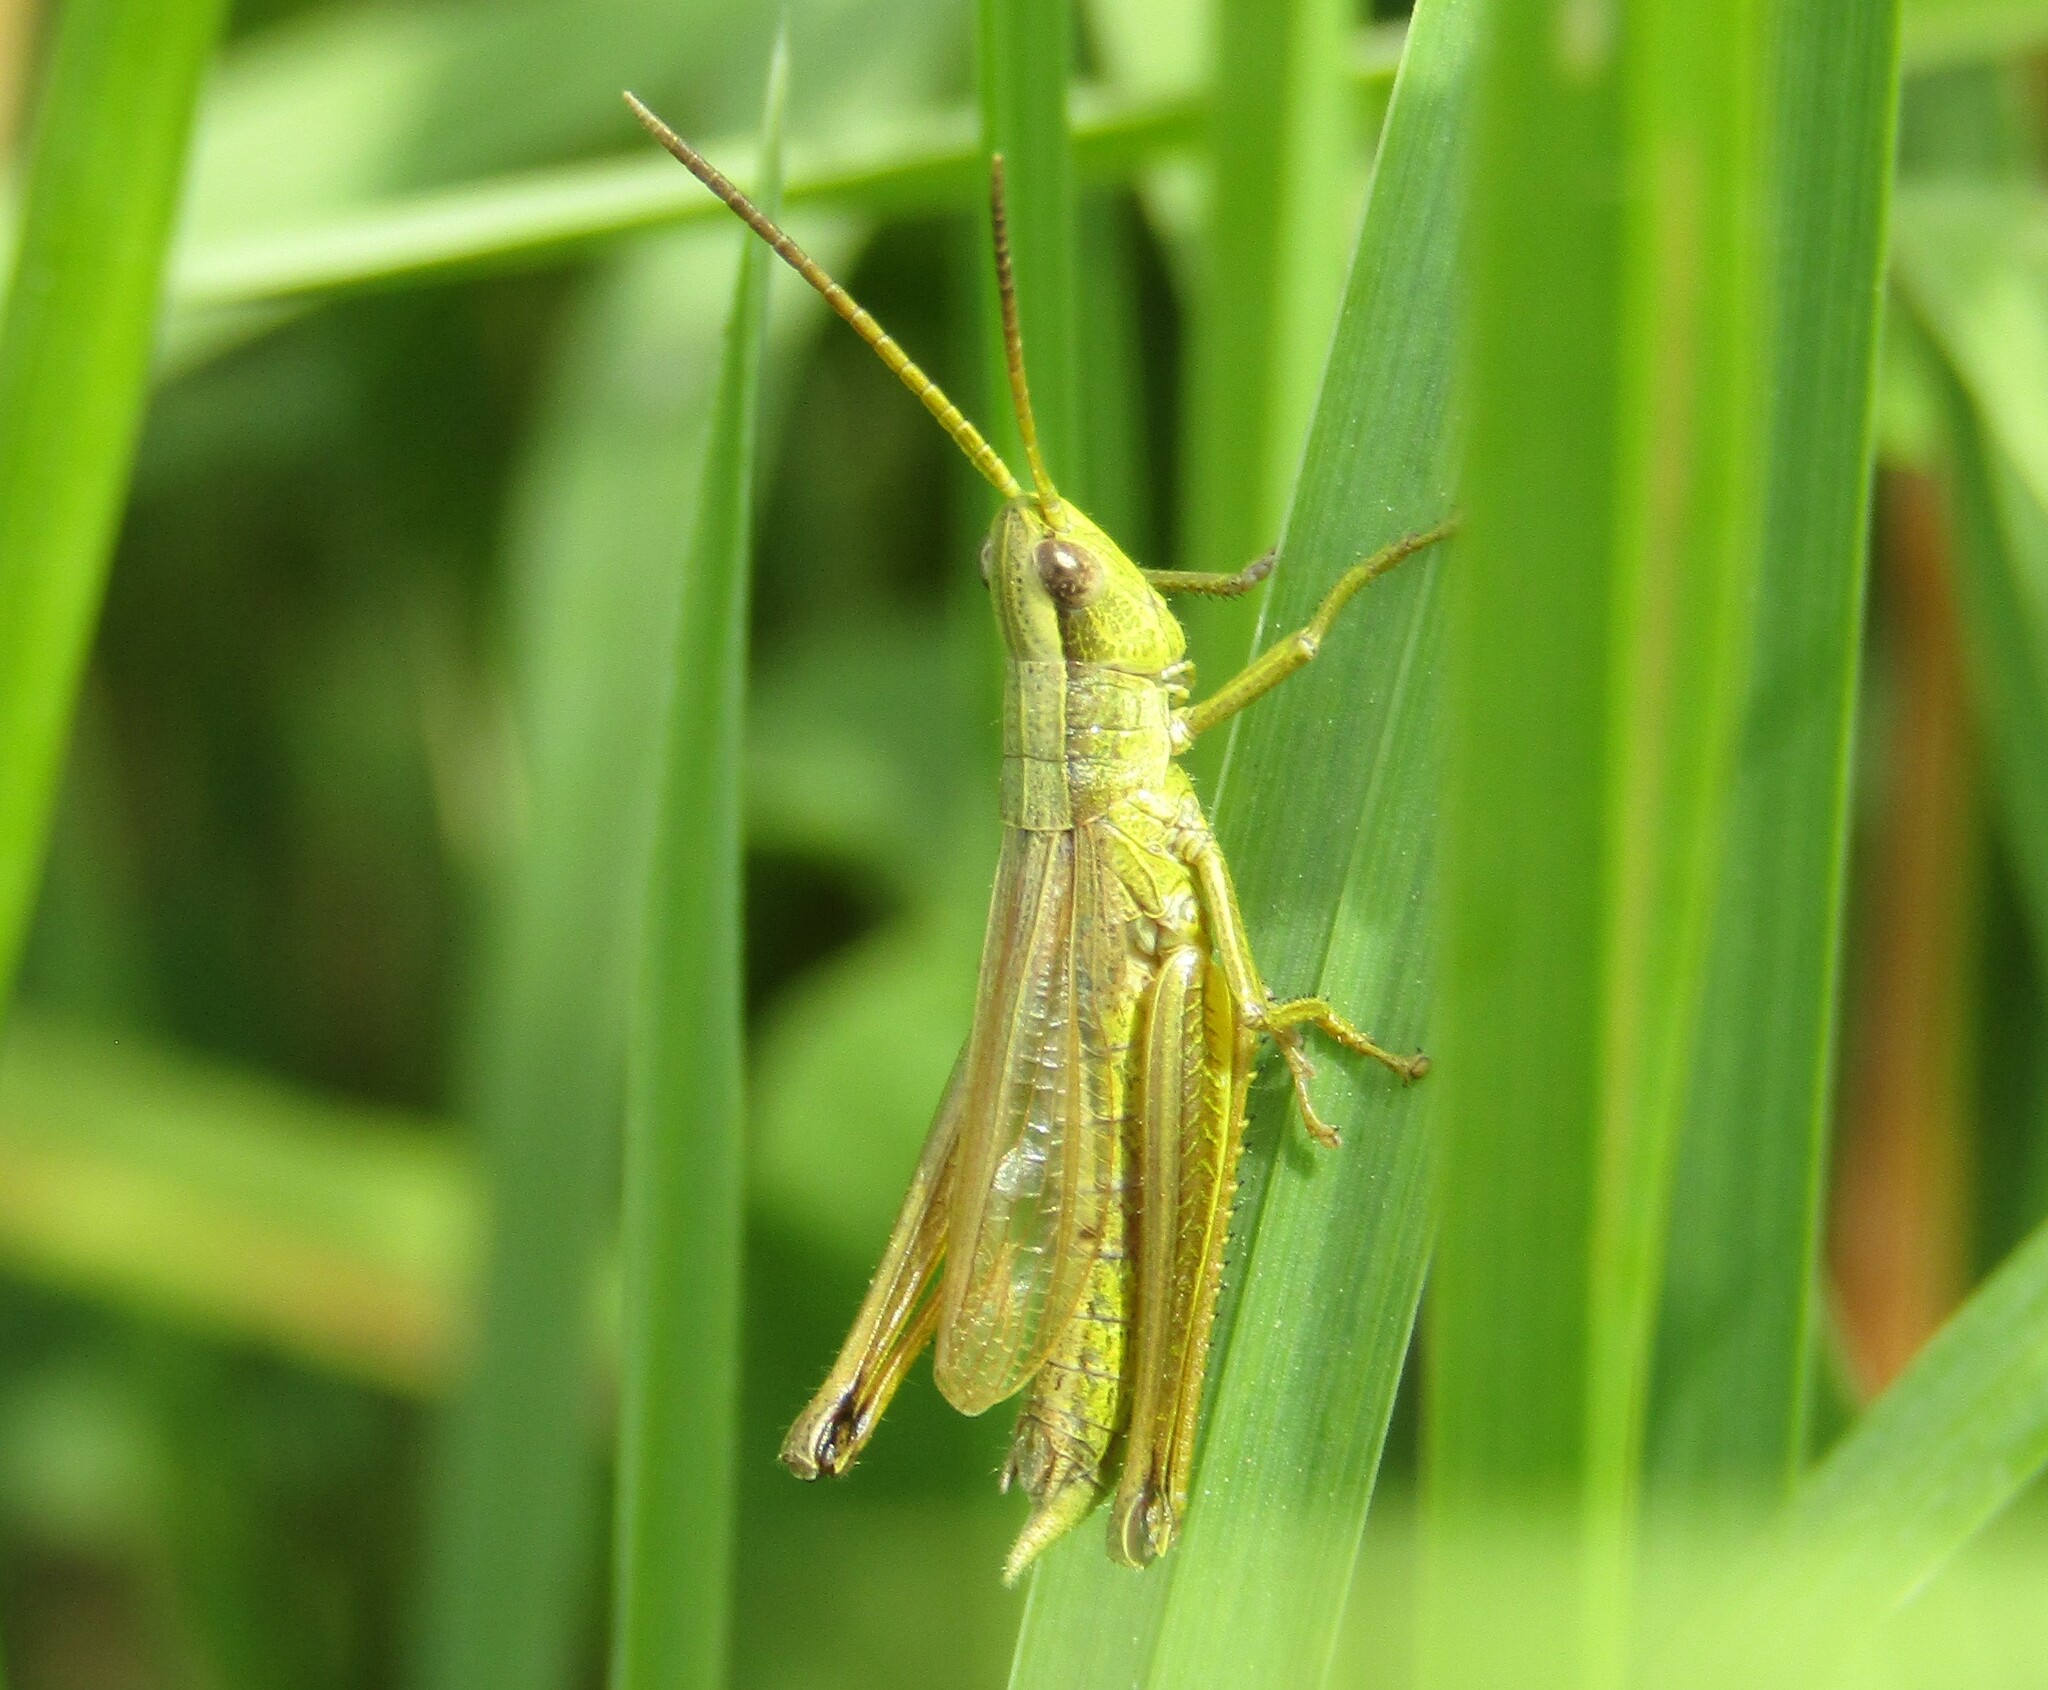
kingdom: Animalia
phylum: Arthropoda
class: Insecta
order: Orthoptera
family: Acrididae
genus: Chrysochraon
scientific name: Chrysochraon dispar
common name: Large gold grasshopper
